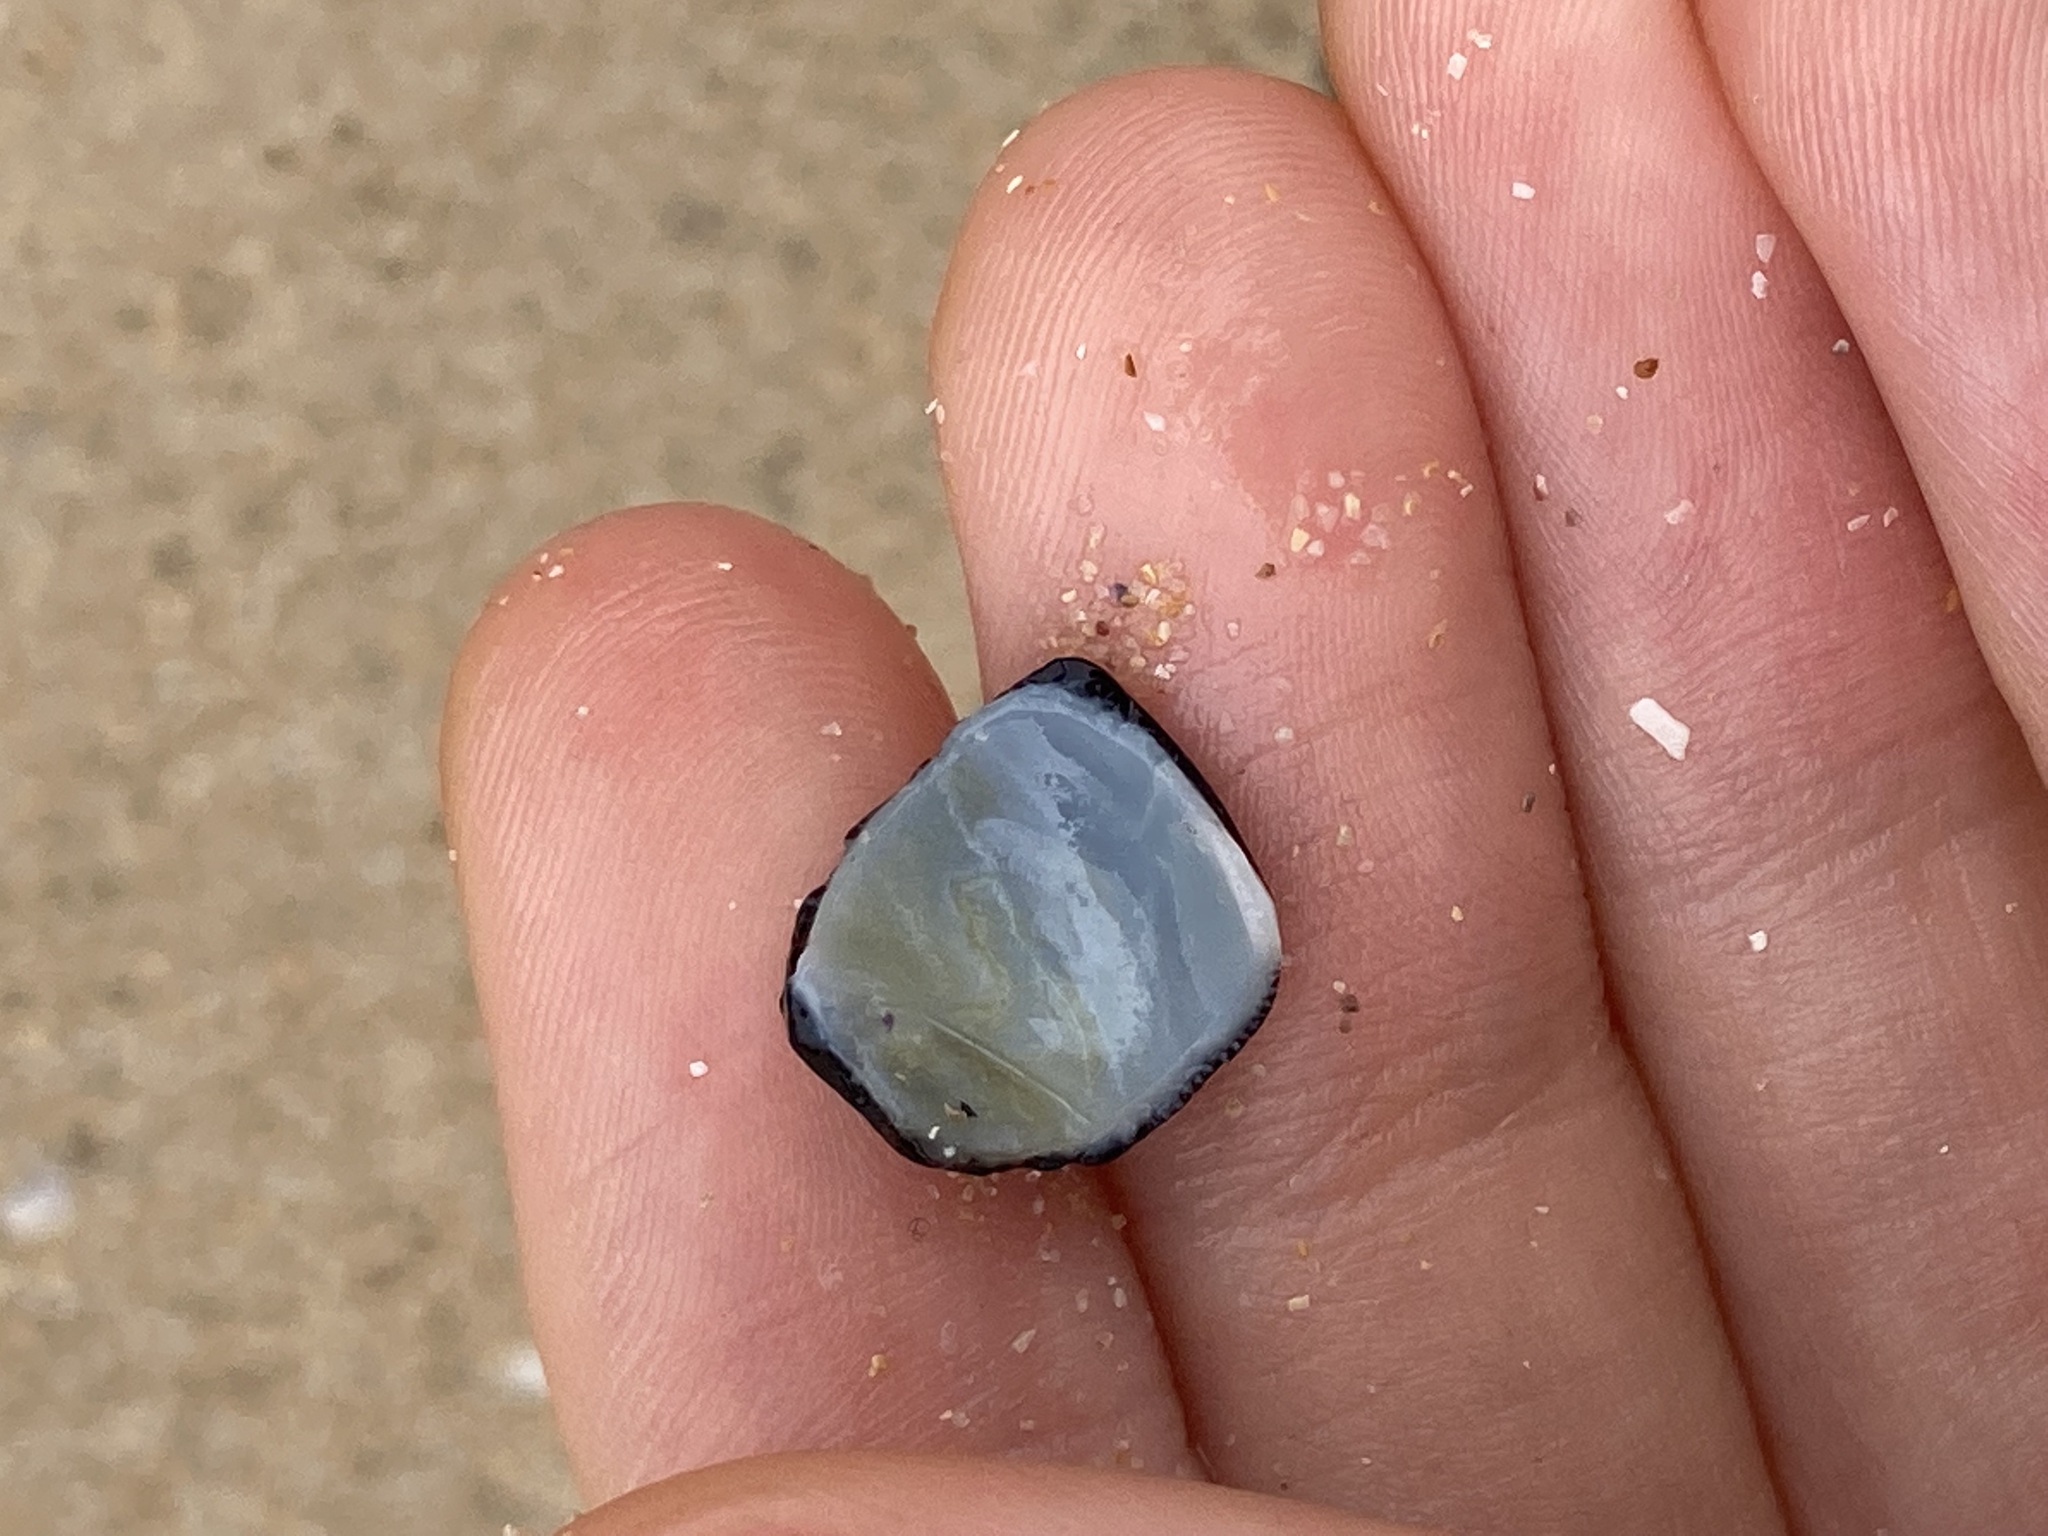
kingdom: Animalia
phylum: Mollusca
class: Gastropoda
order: Cycloneritida
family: Neritidae
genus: Nerita
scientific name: Nerita melanotragus
